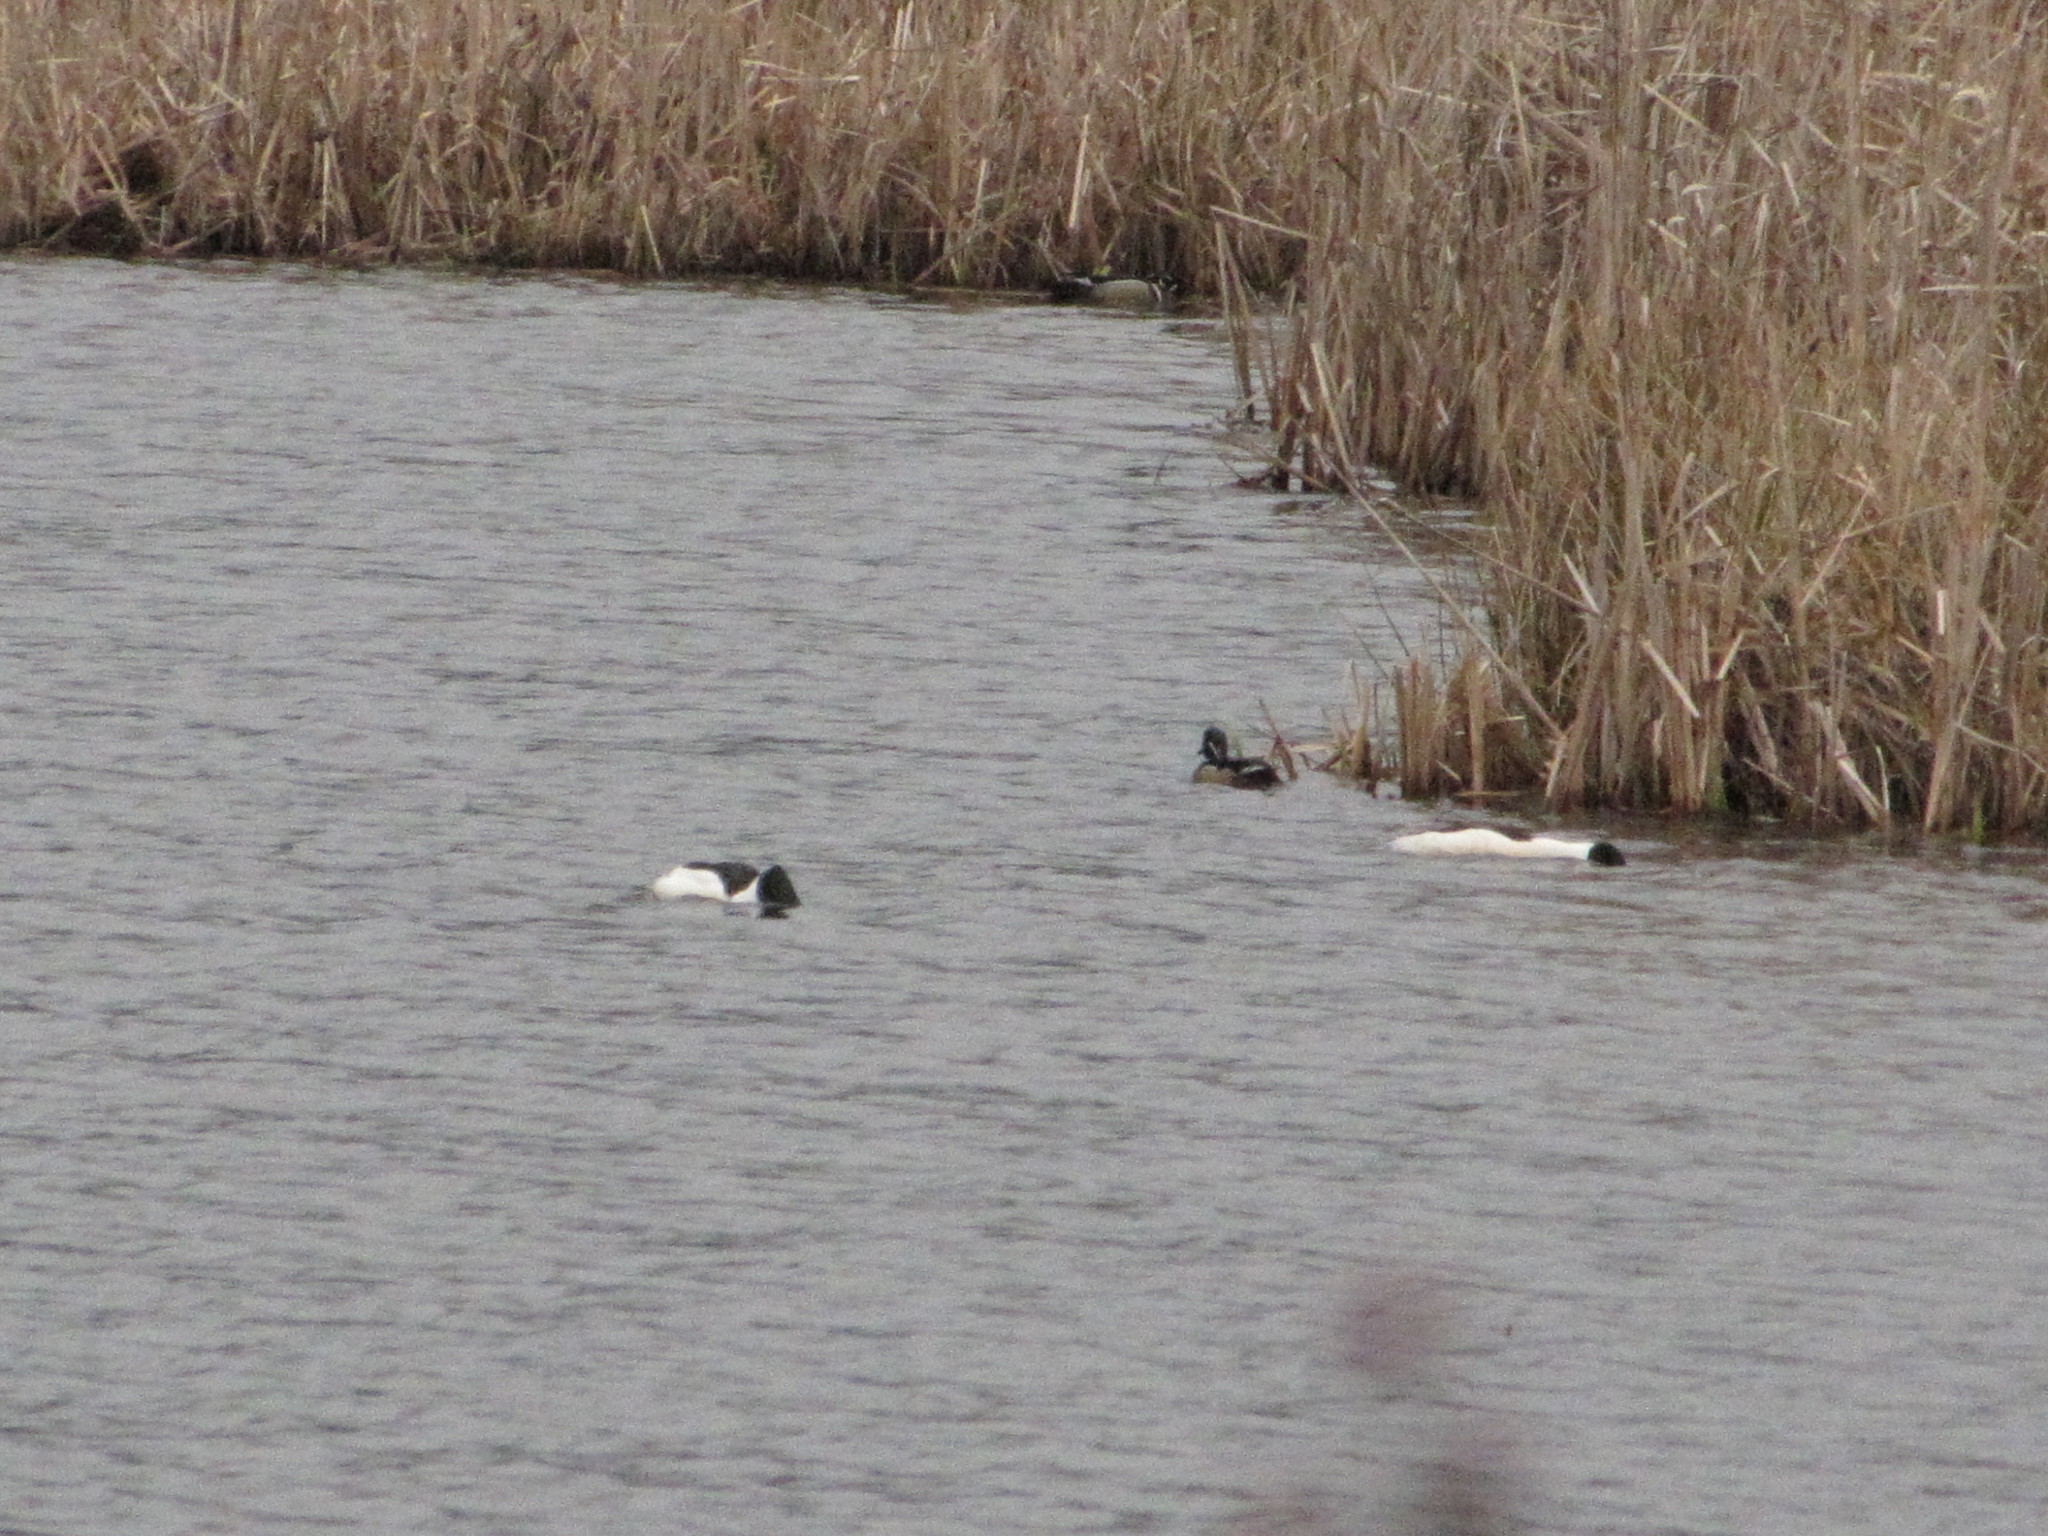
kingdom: Animalia
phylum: Chordata
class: Aves
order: Anseriformes
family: Anatidae
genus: Aix
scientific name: Aix sponsa
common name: Wood duck
